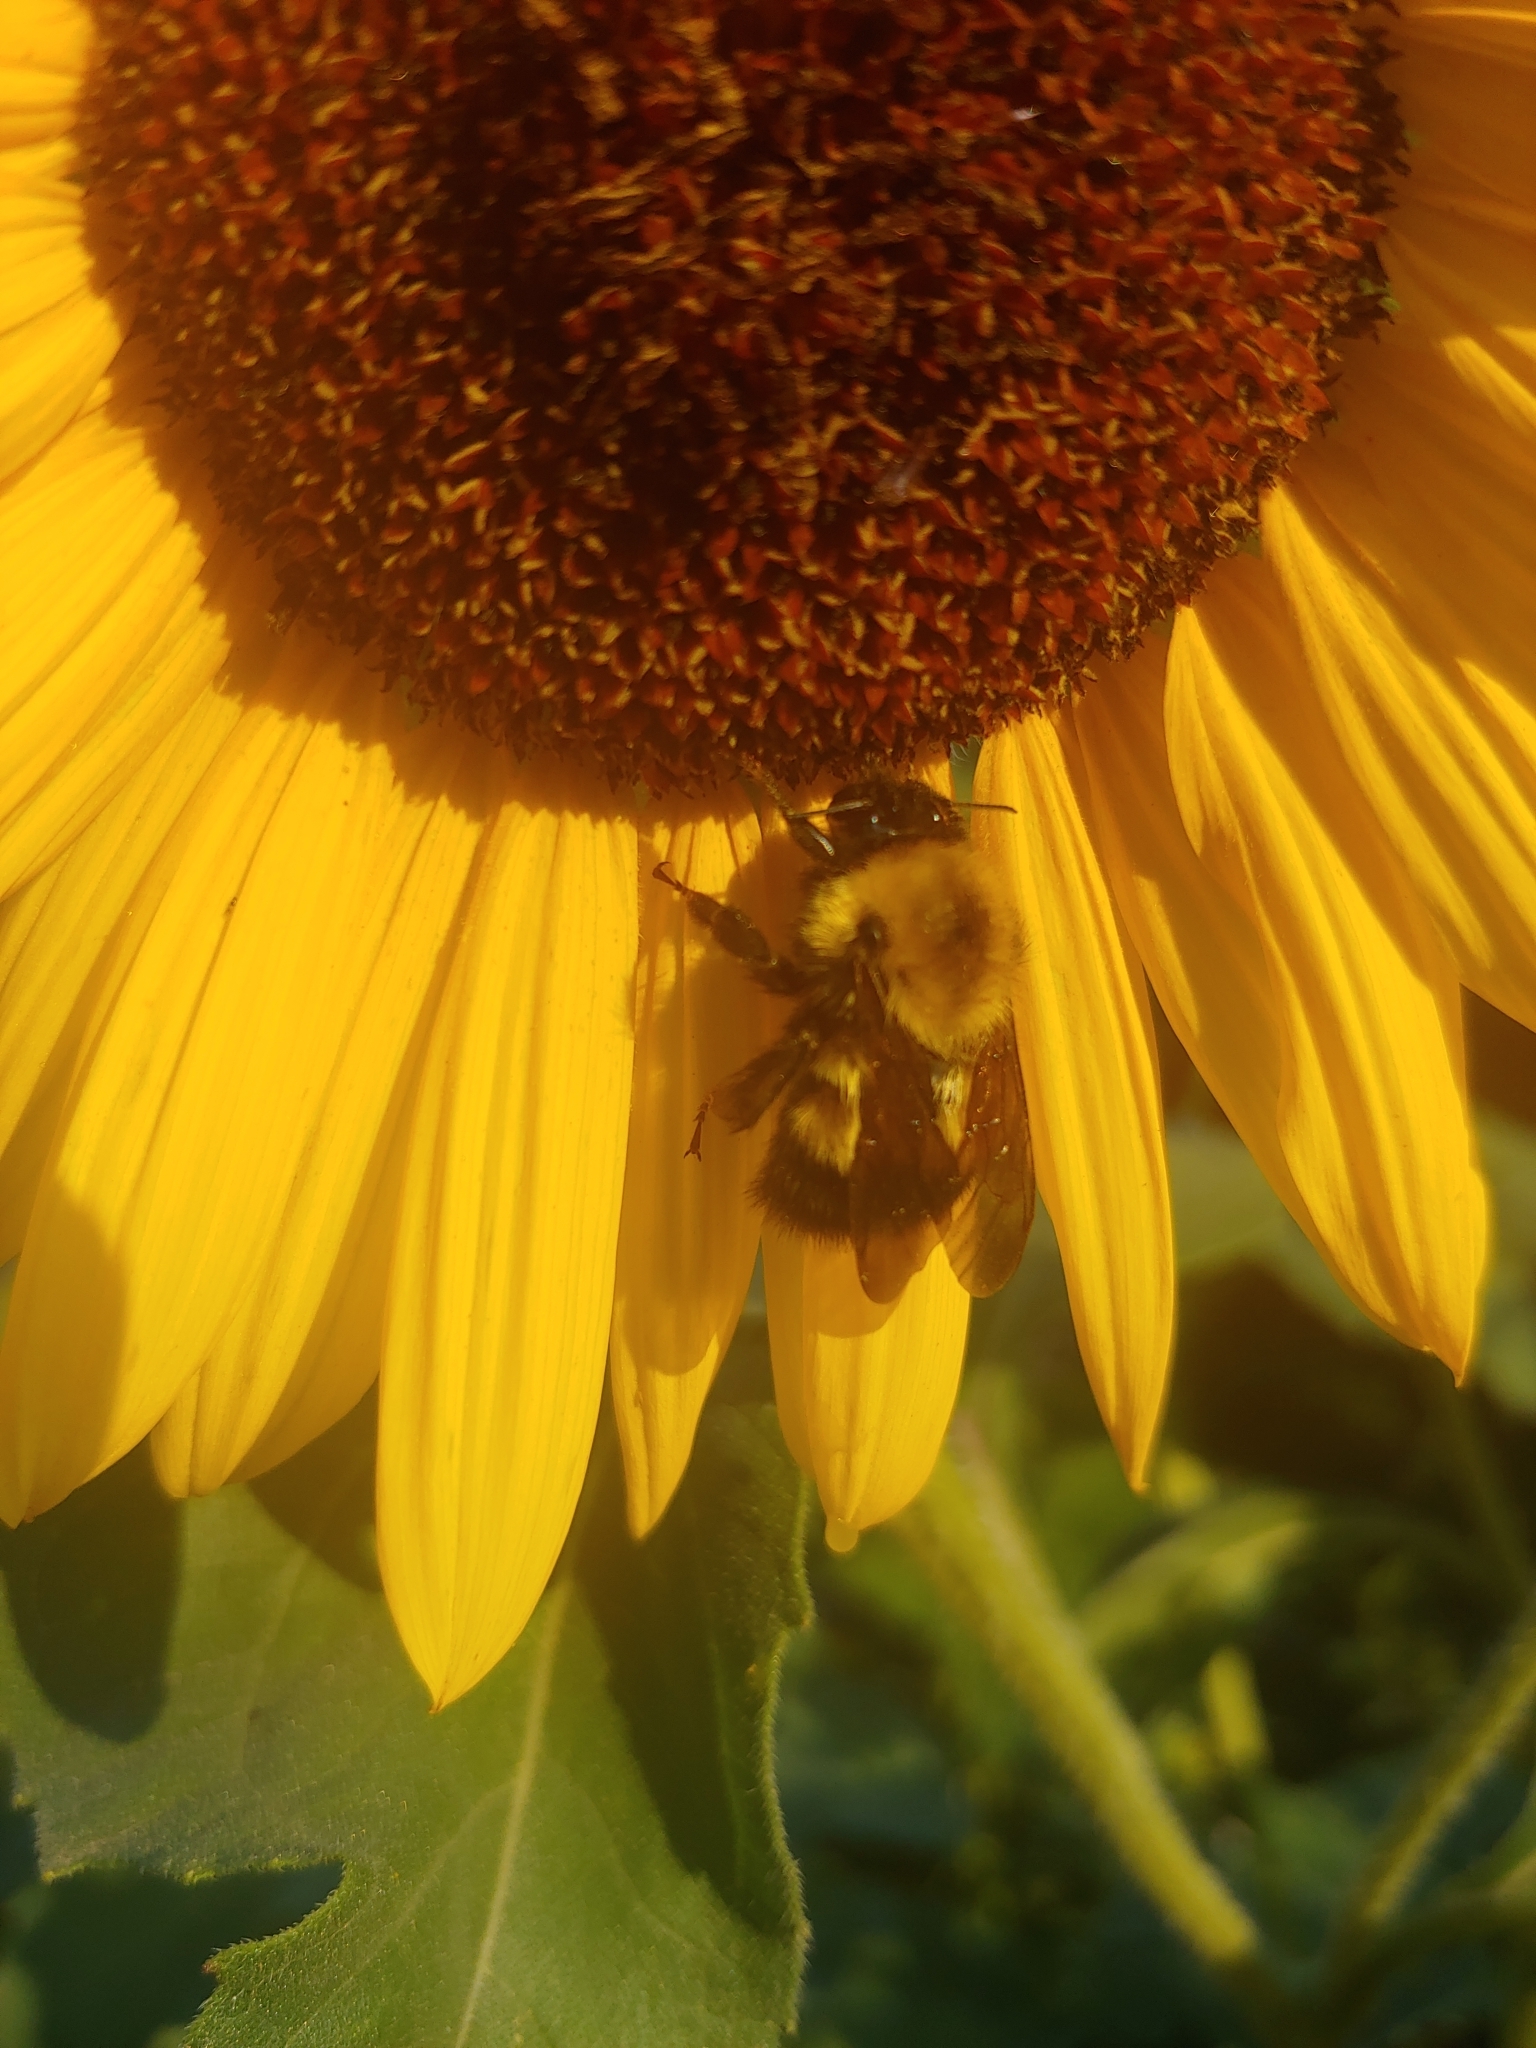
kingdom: Animalia
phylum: Arthropoda
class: Insecta
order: Hymenoptera
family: Apidae
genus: Bombus
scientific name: Bombus perplexus
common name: Confusing bumble bee
